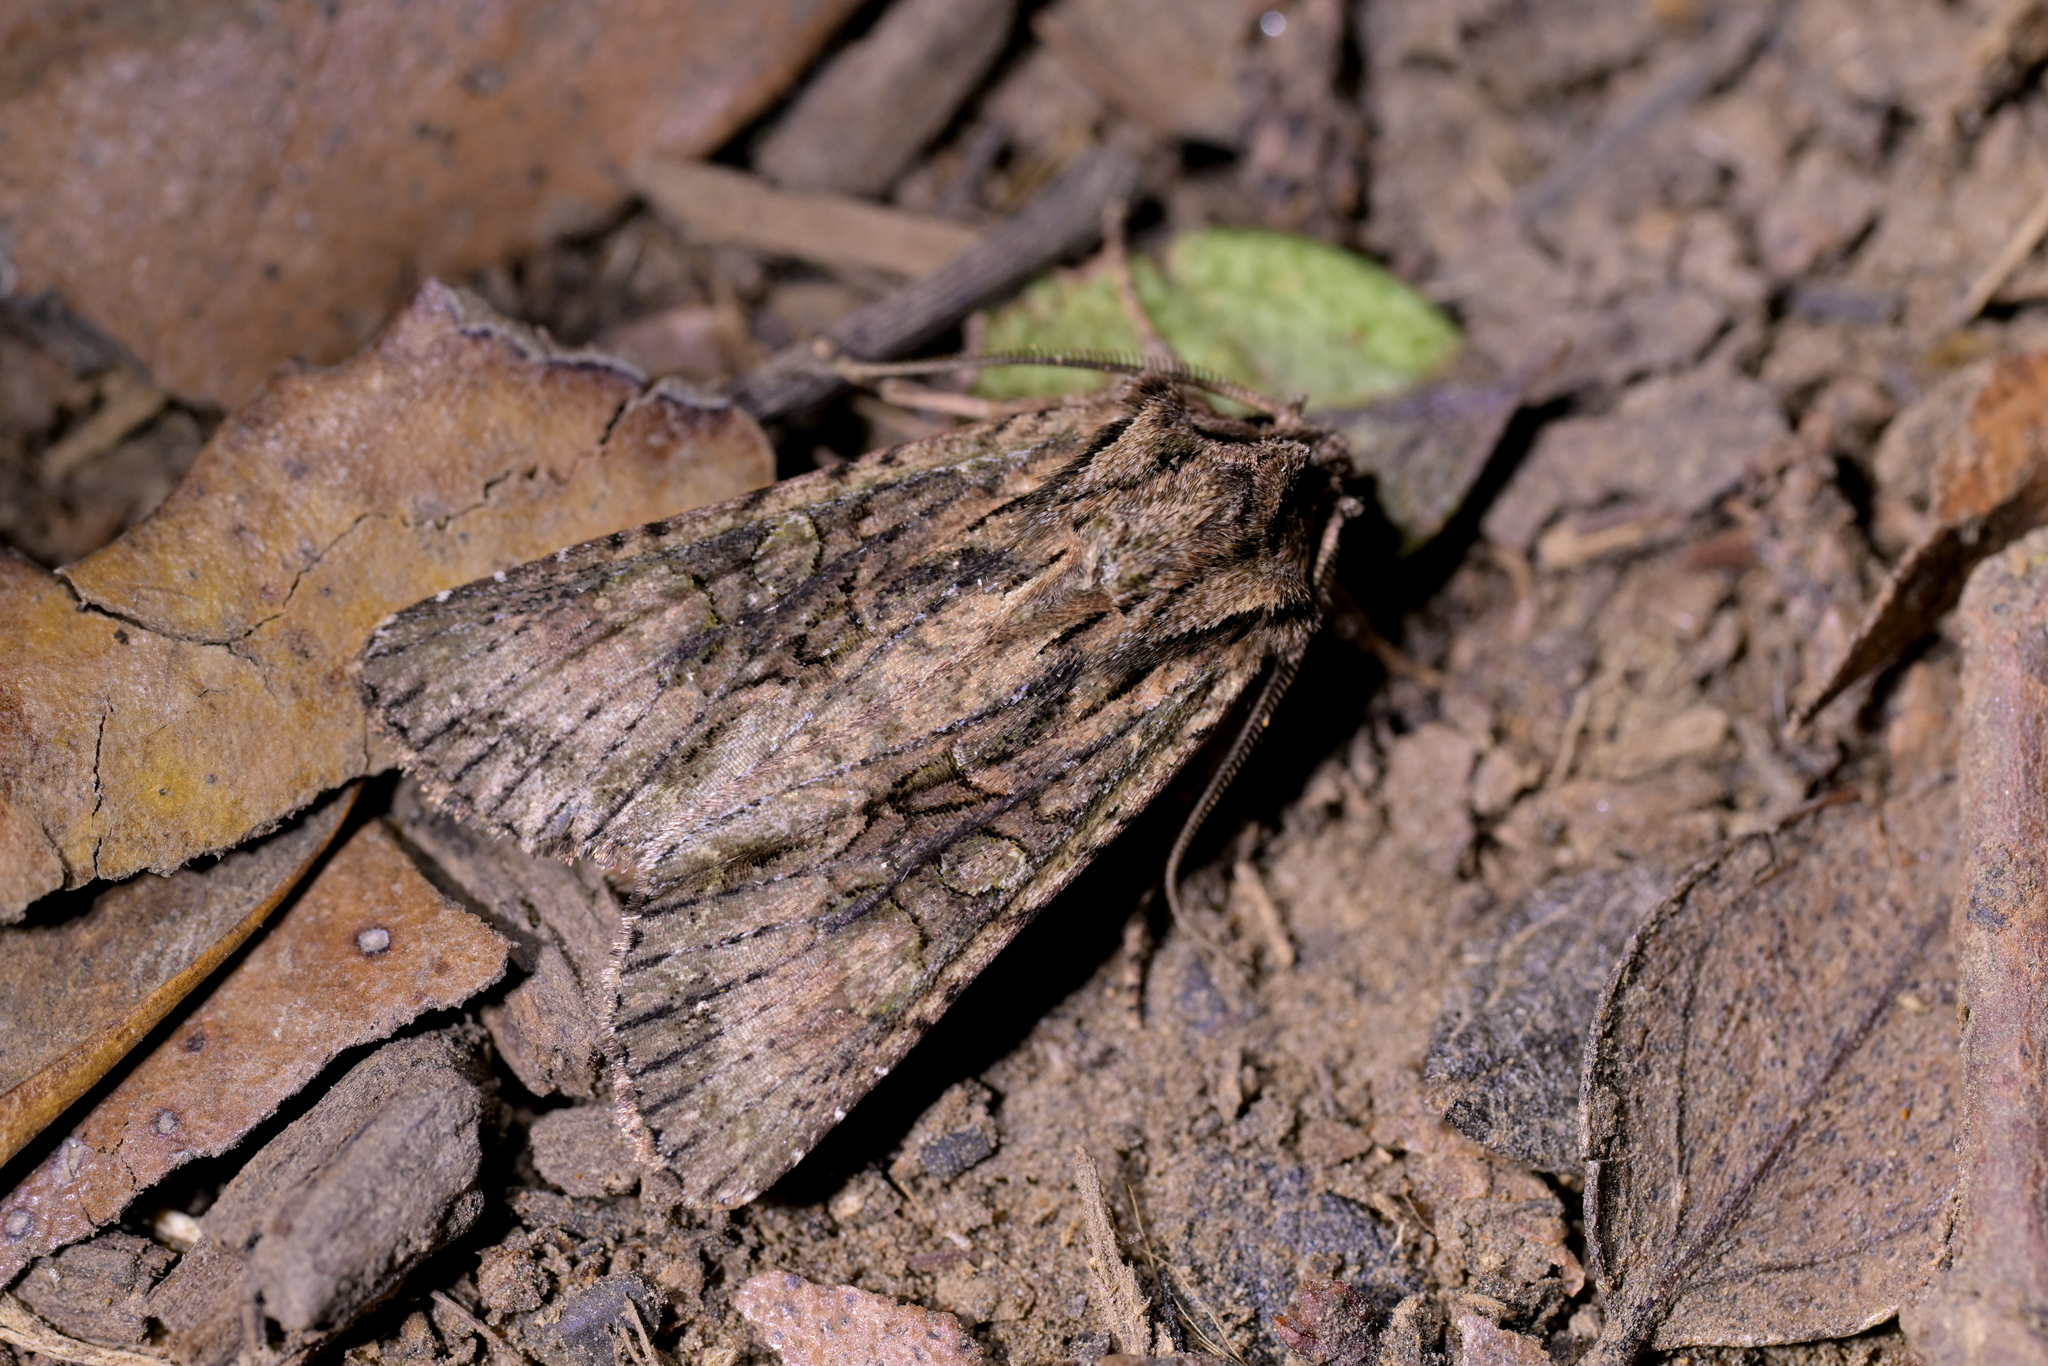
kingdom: Animalia
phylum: Arthropoda
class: Insecta
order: Lepidoptera
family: Noctuidae
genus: Ichneutica
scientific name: Ichneutica mutans
